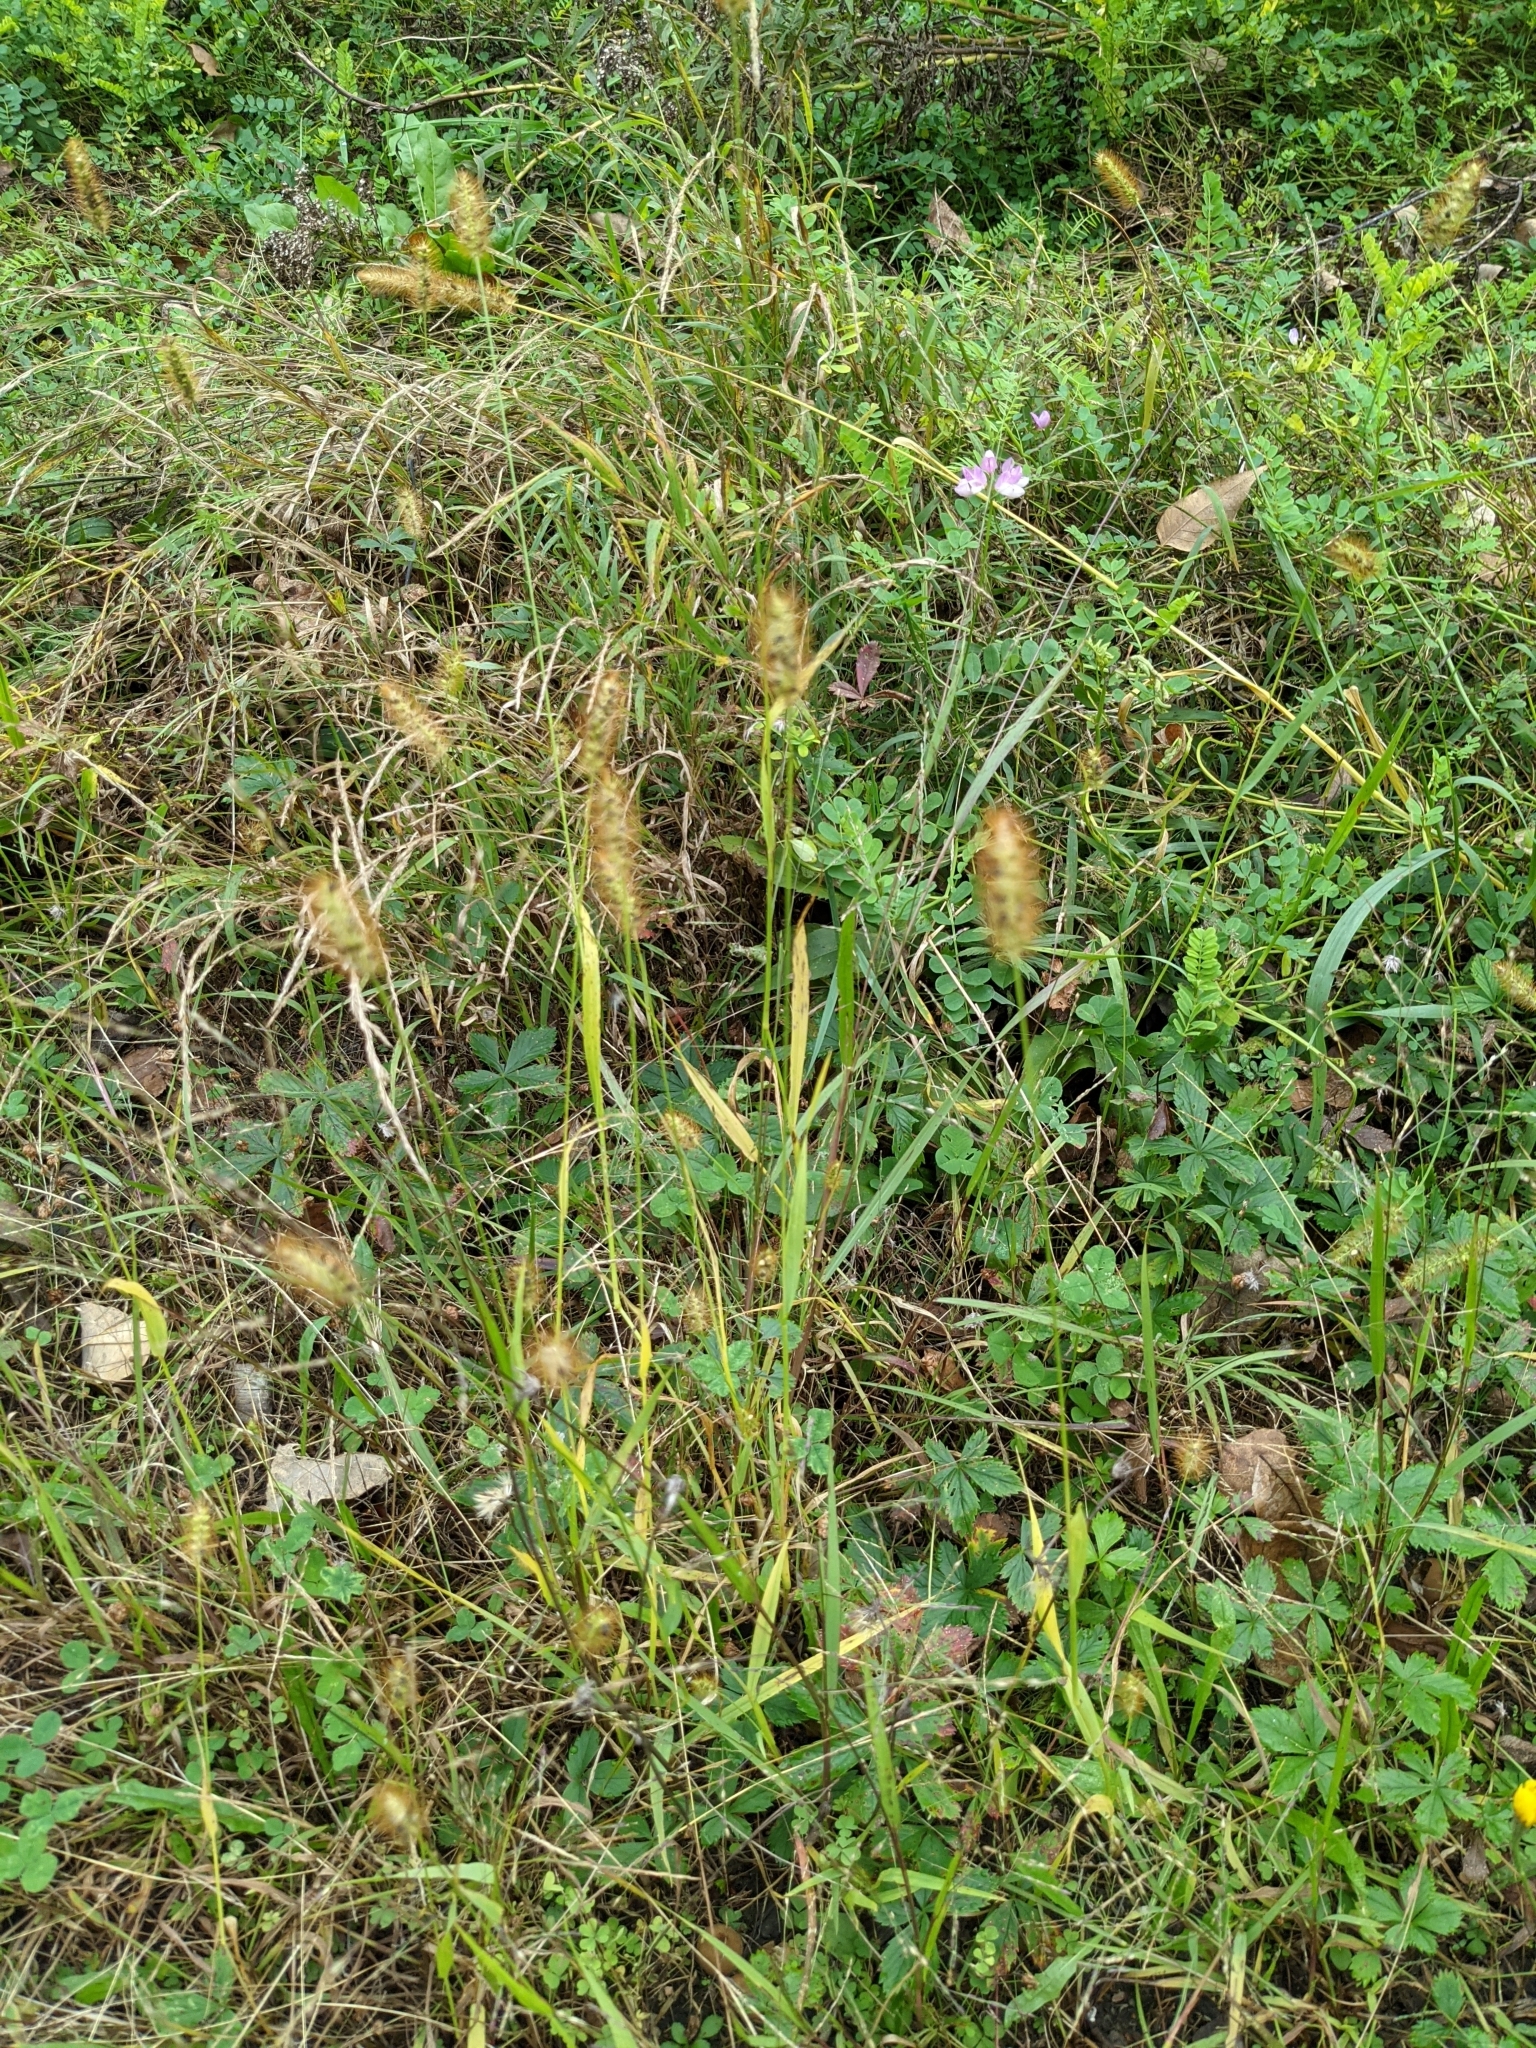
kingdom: Plantae
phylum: Tracheophyta
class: Liliopsida
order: Poales
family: Poaceae
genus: Setaria
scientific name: Setaria pumila
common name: Yellow bristle-grass
